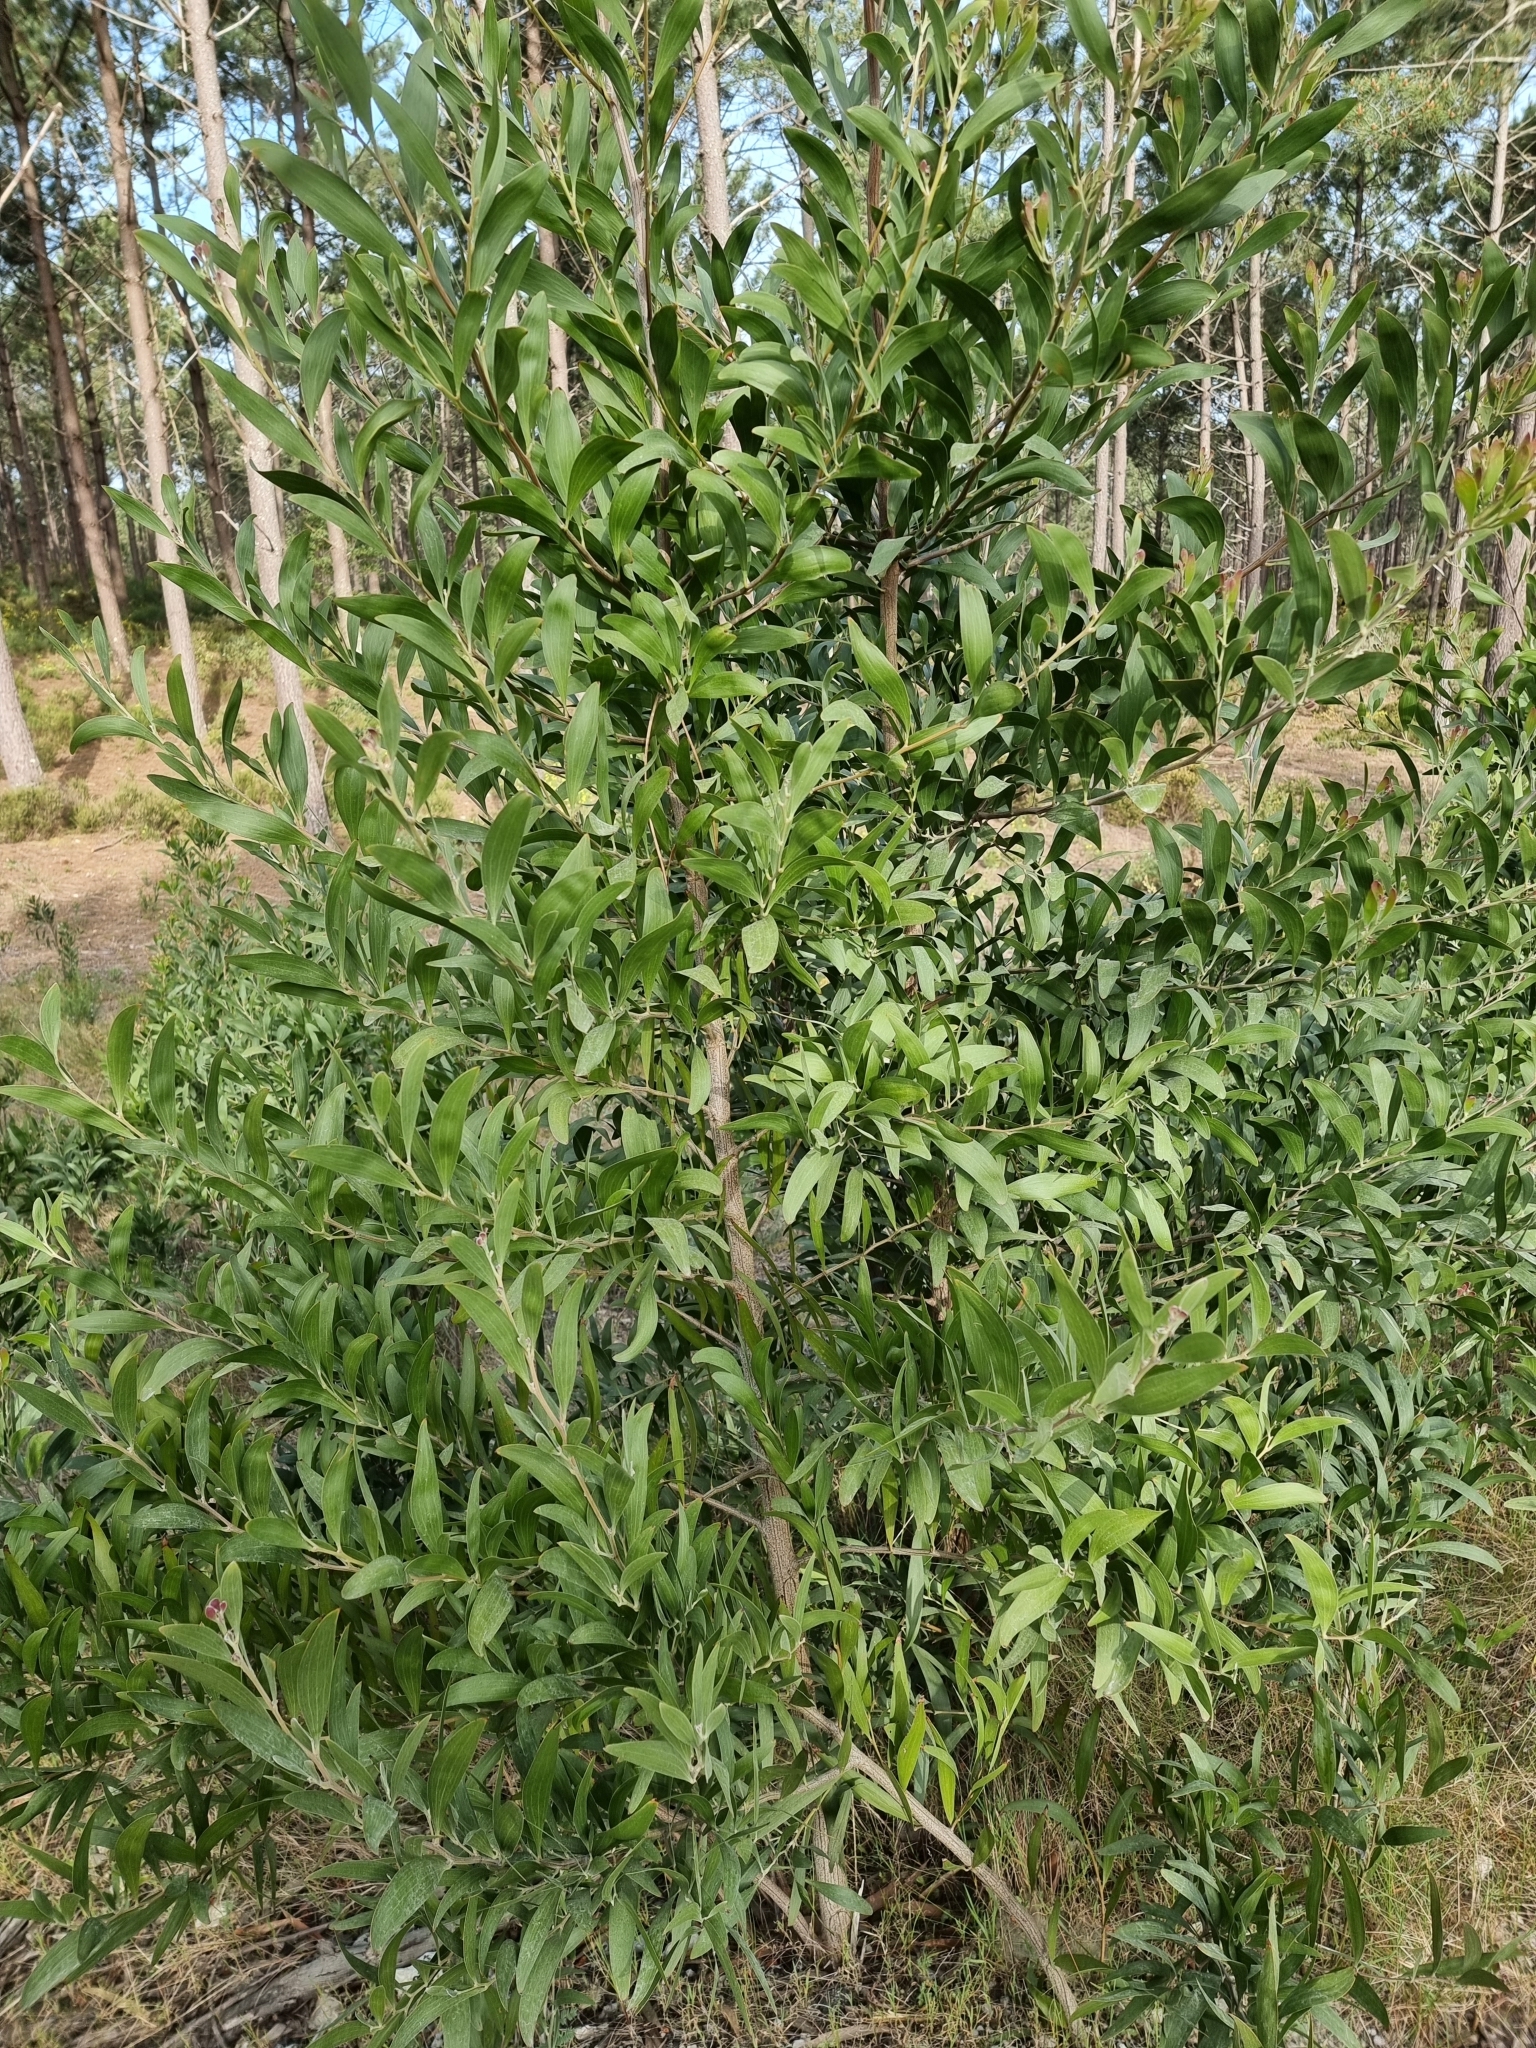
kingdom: Plantae
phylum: Tracheophyta
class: Magnoliopsida
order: Fabales
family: Fabaceae
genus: Acacia
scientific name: Acacia melanoxylon
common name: Blackwood
